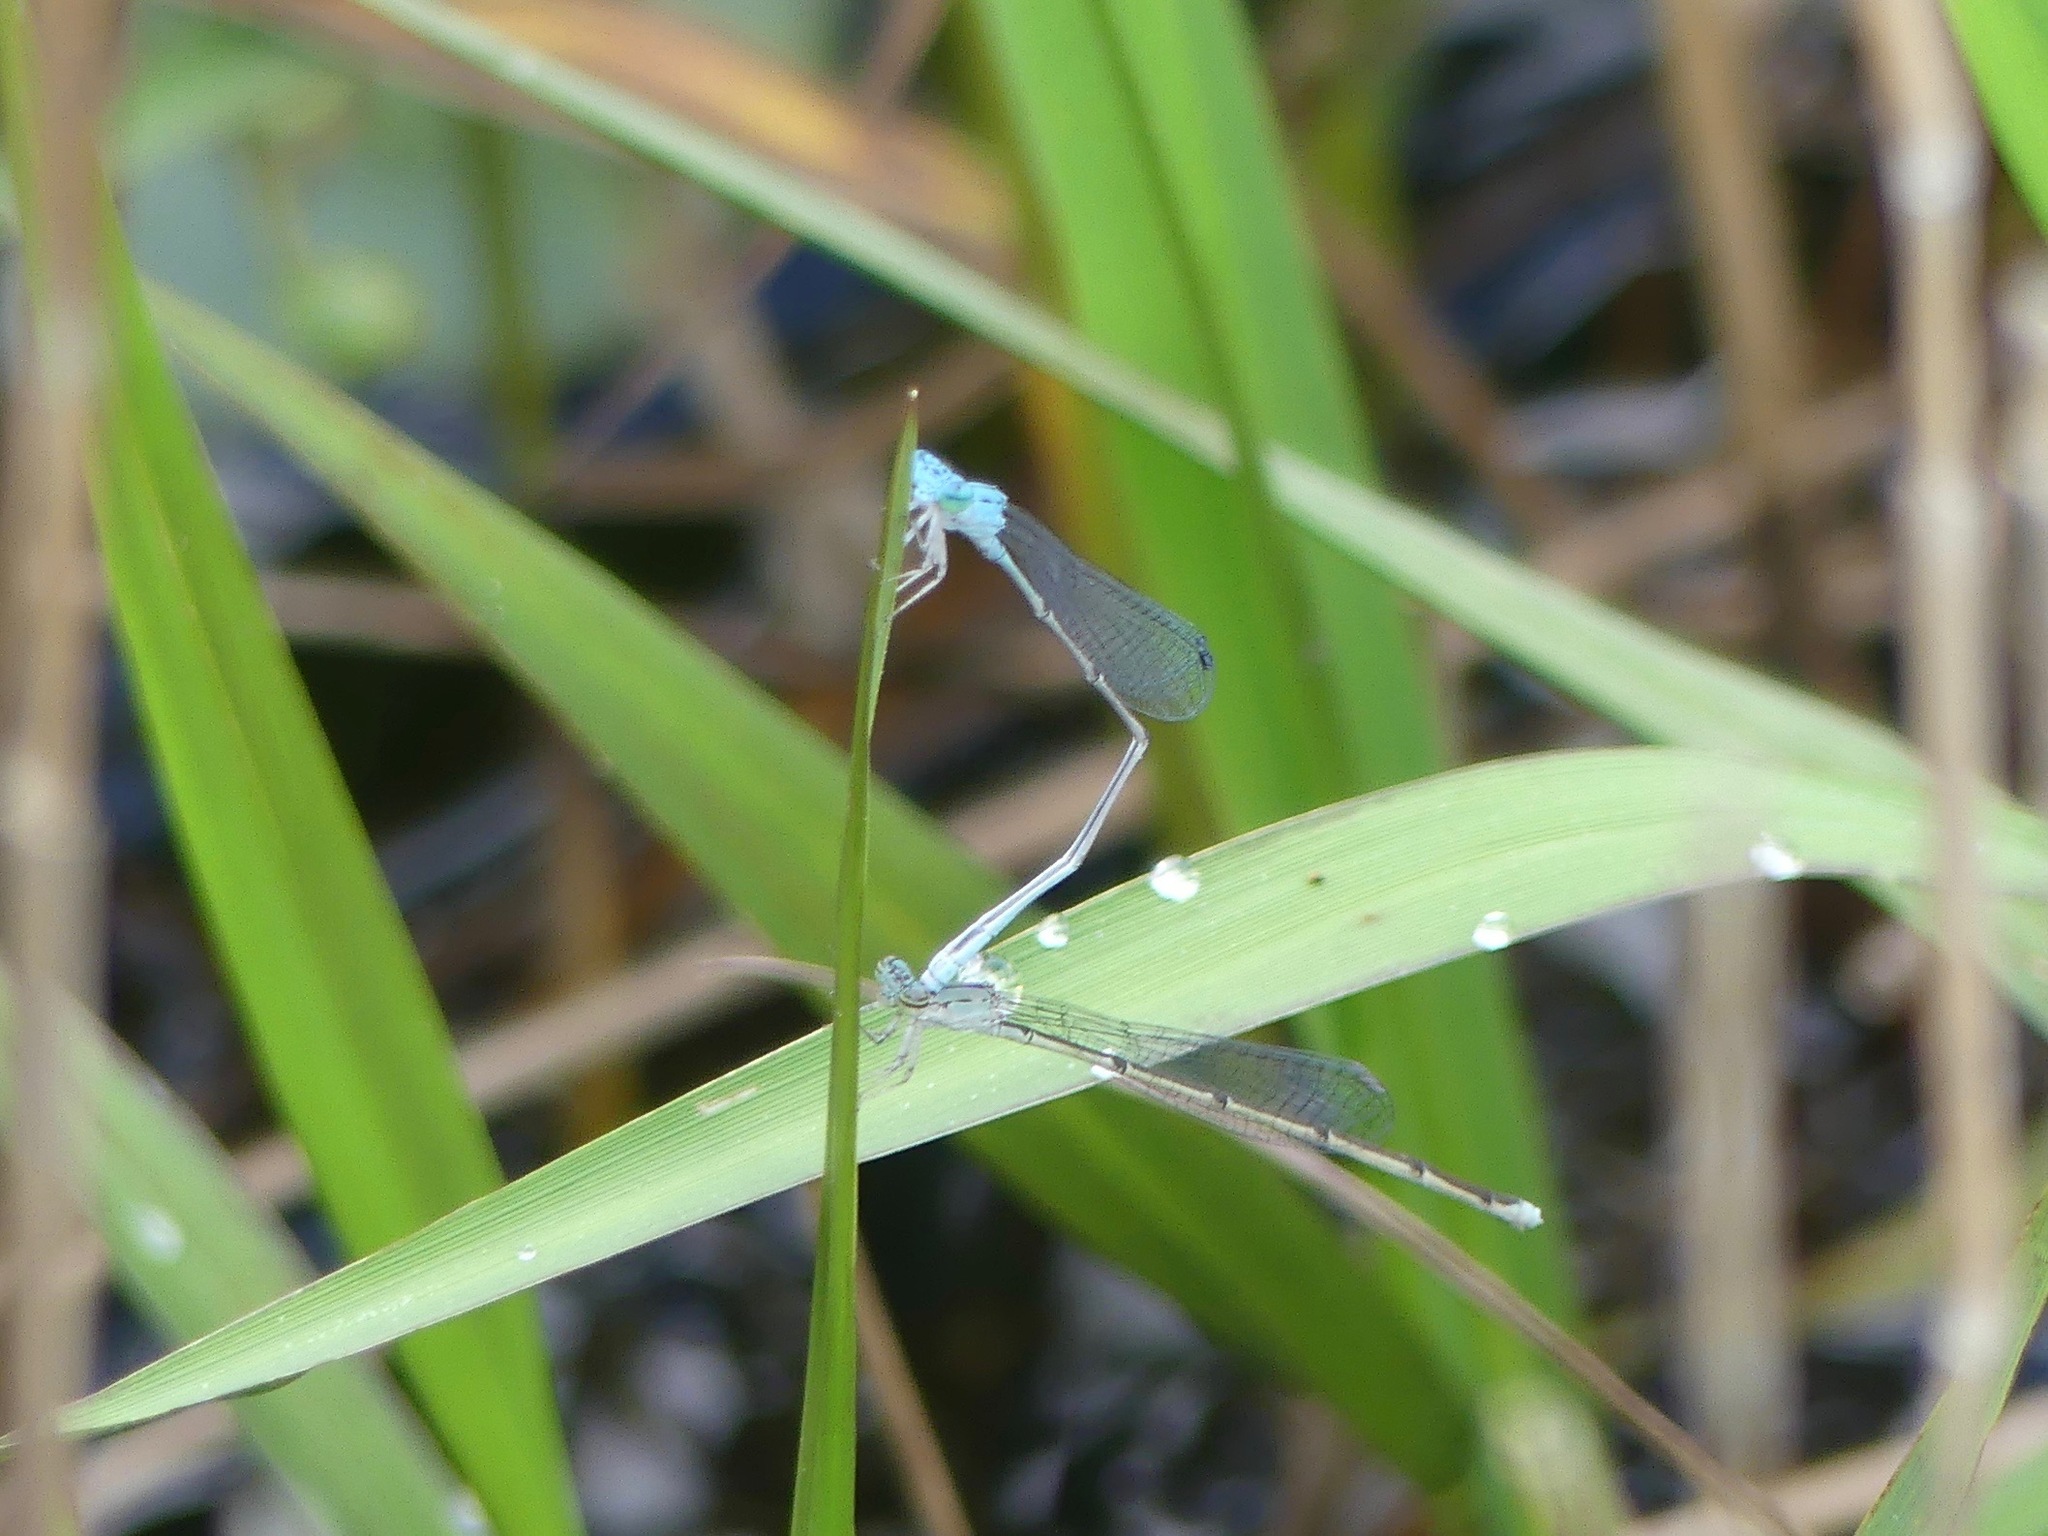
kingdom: Animalia
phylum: Arthropoda
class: Insecta
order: Odonata
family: Coenagrionidae
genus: Enallagma
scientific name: Enallagma daeckii
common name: Attenuated bluet
